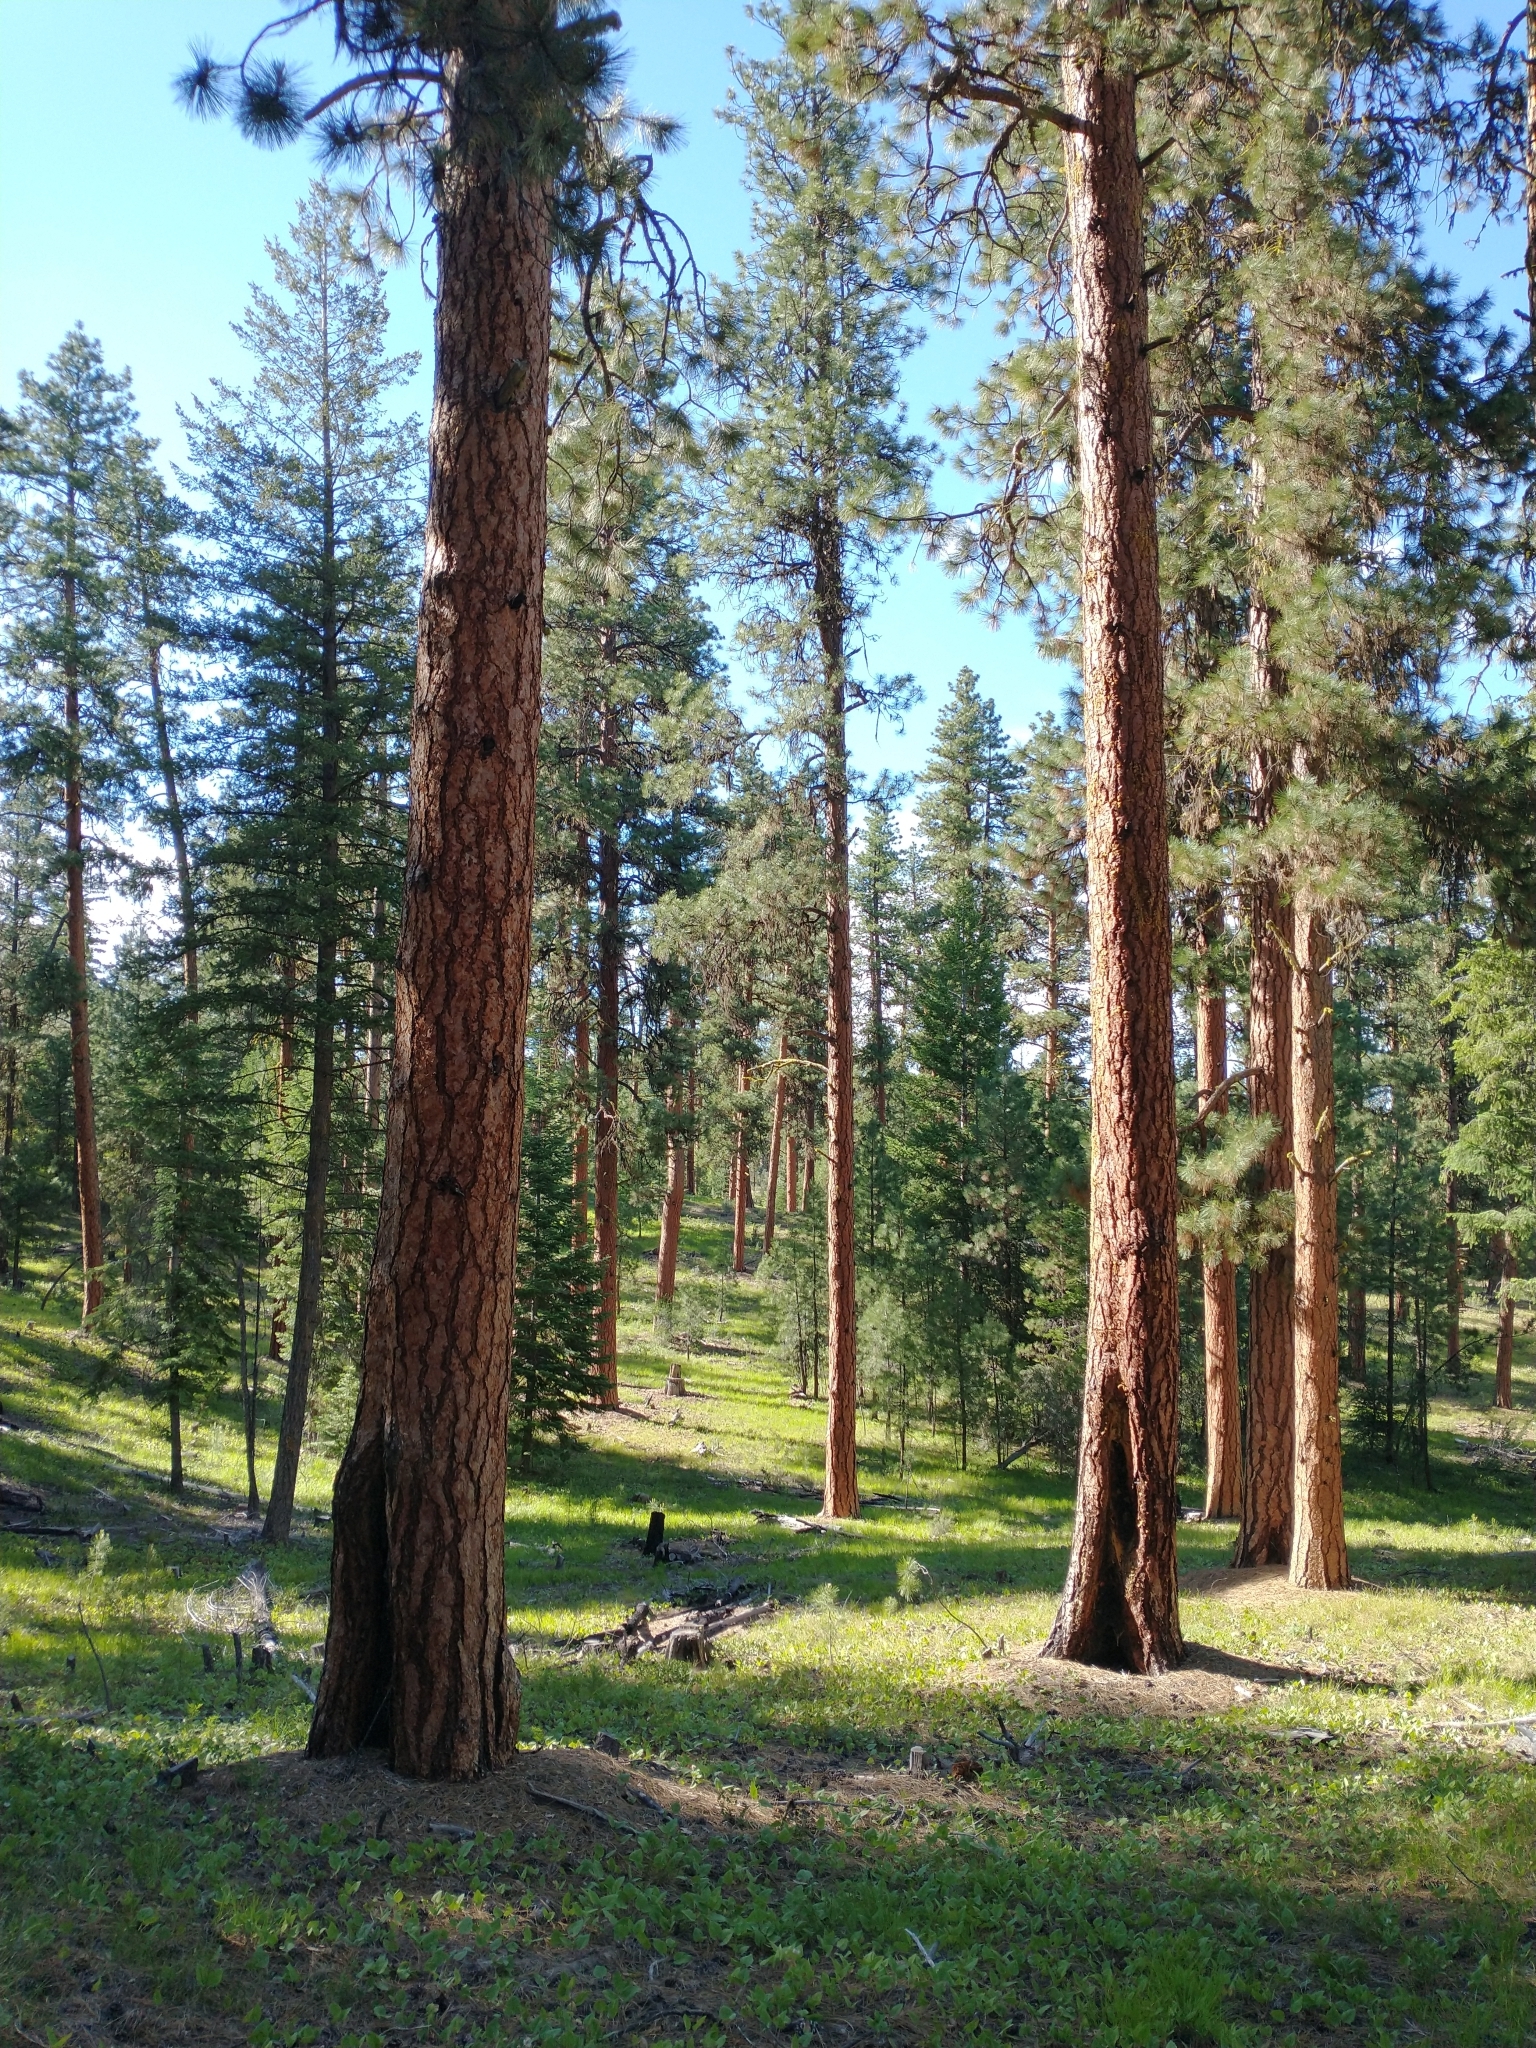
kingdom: Plantae
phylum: Tracheophyta
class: Pinopsida
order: Pinales
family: Pinaceae
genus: Pinus
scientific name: Pinus ponderosa
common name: Western yellow-pine
